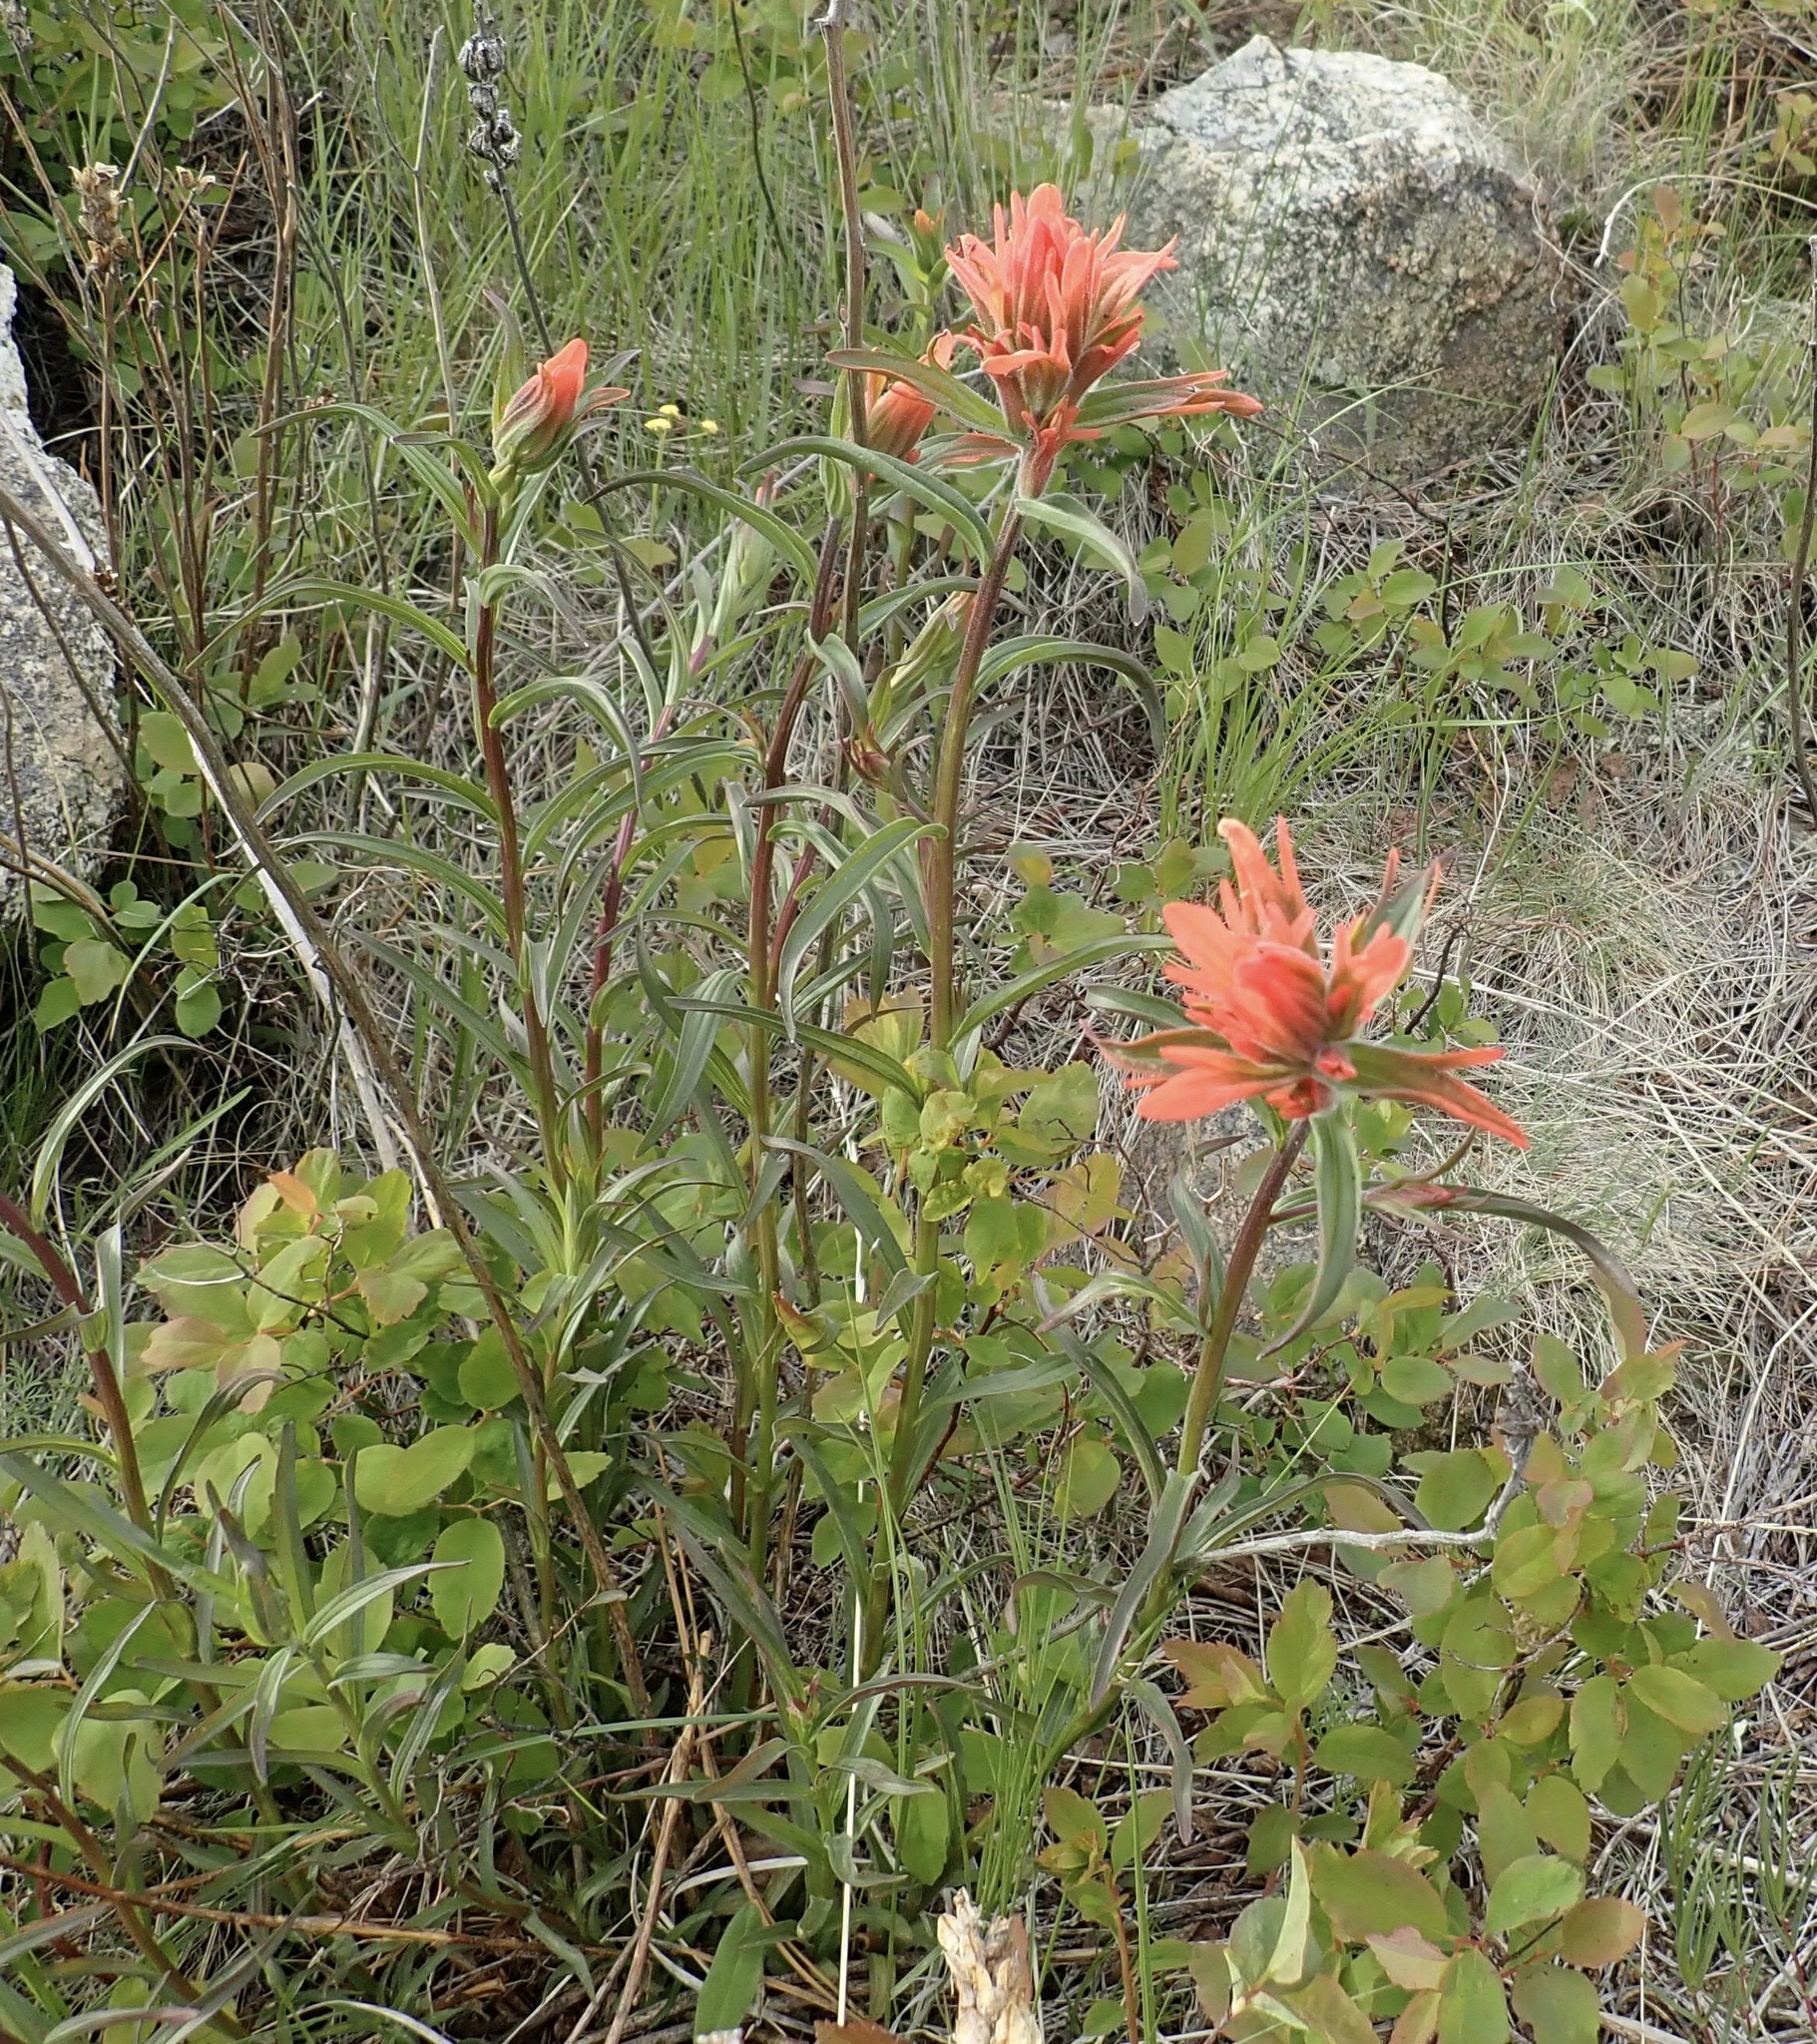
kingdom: Plantae
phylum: Tracheophyta
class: Magnoliopsida
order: Lamiales
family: Orobanchaceae
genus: Castilleja
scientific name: Castilleja miniata
